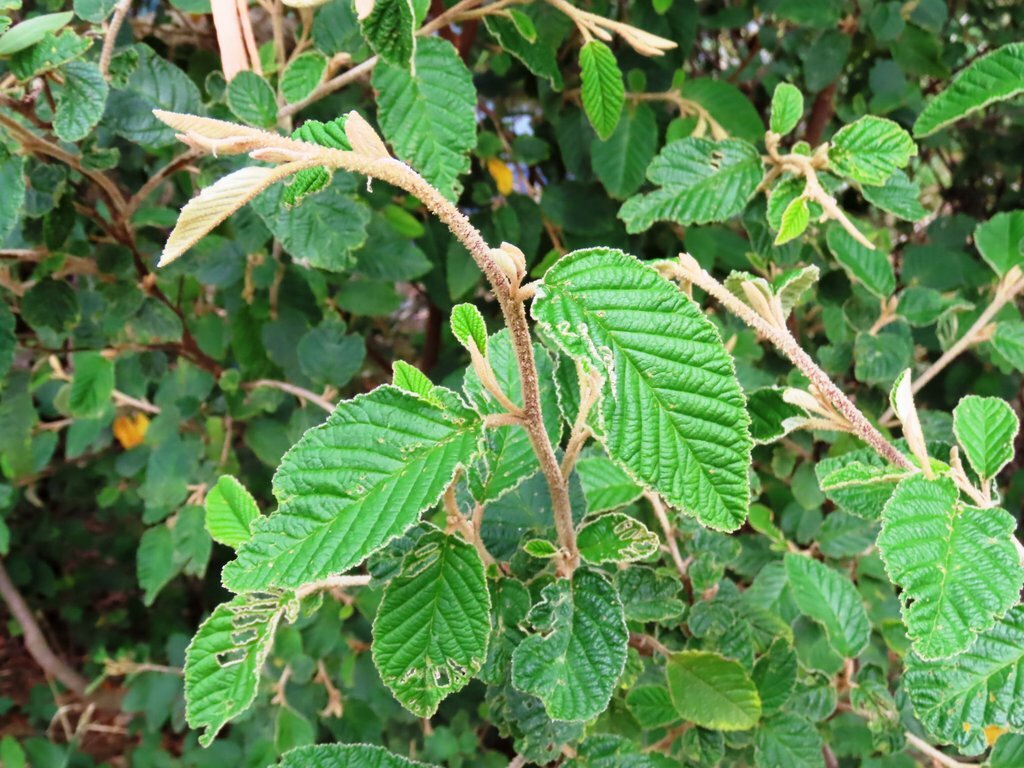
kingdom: Plantae
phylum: Tracheophyta
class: Magnoliopsida
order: Rosales
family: Rhamnaceae
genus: Pomaderris
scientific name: Pomaderris aspera
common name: Hazel pomaderris
